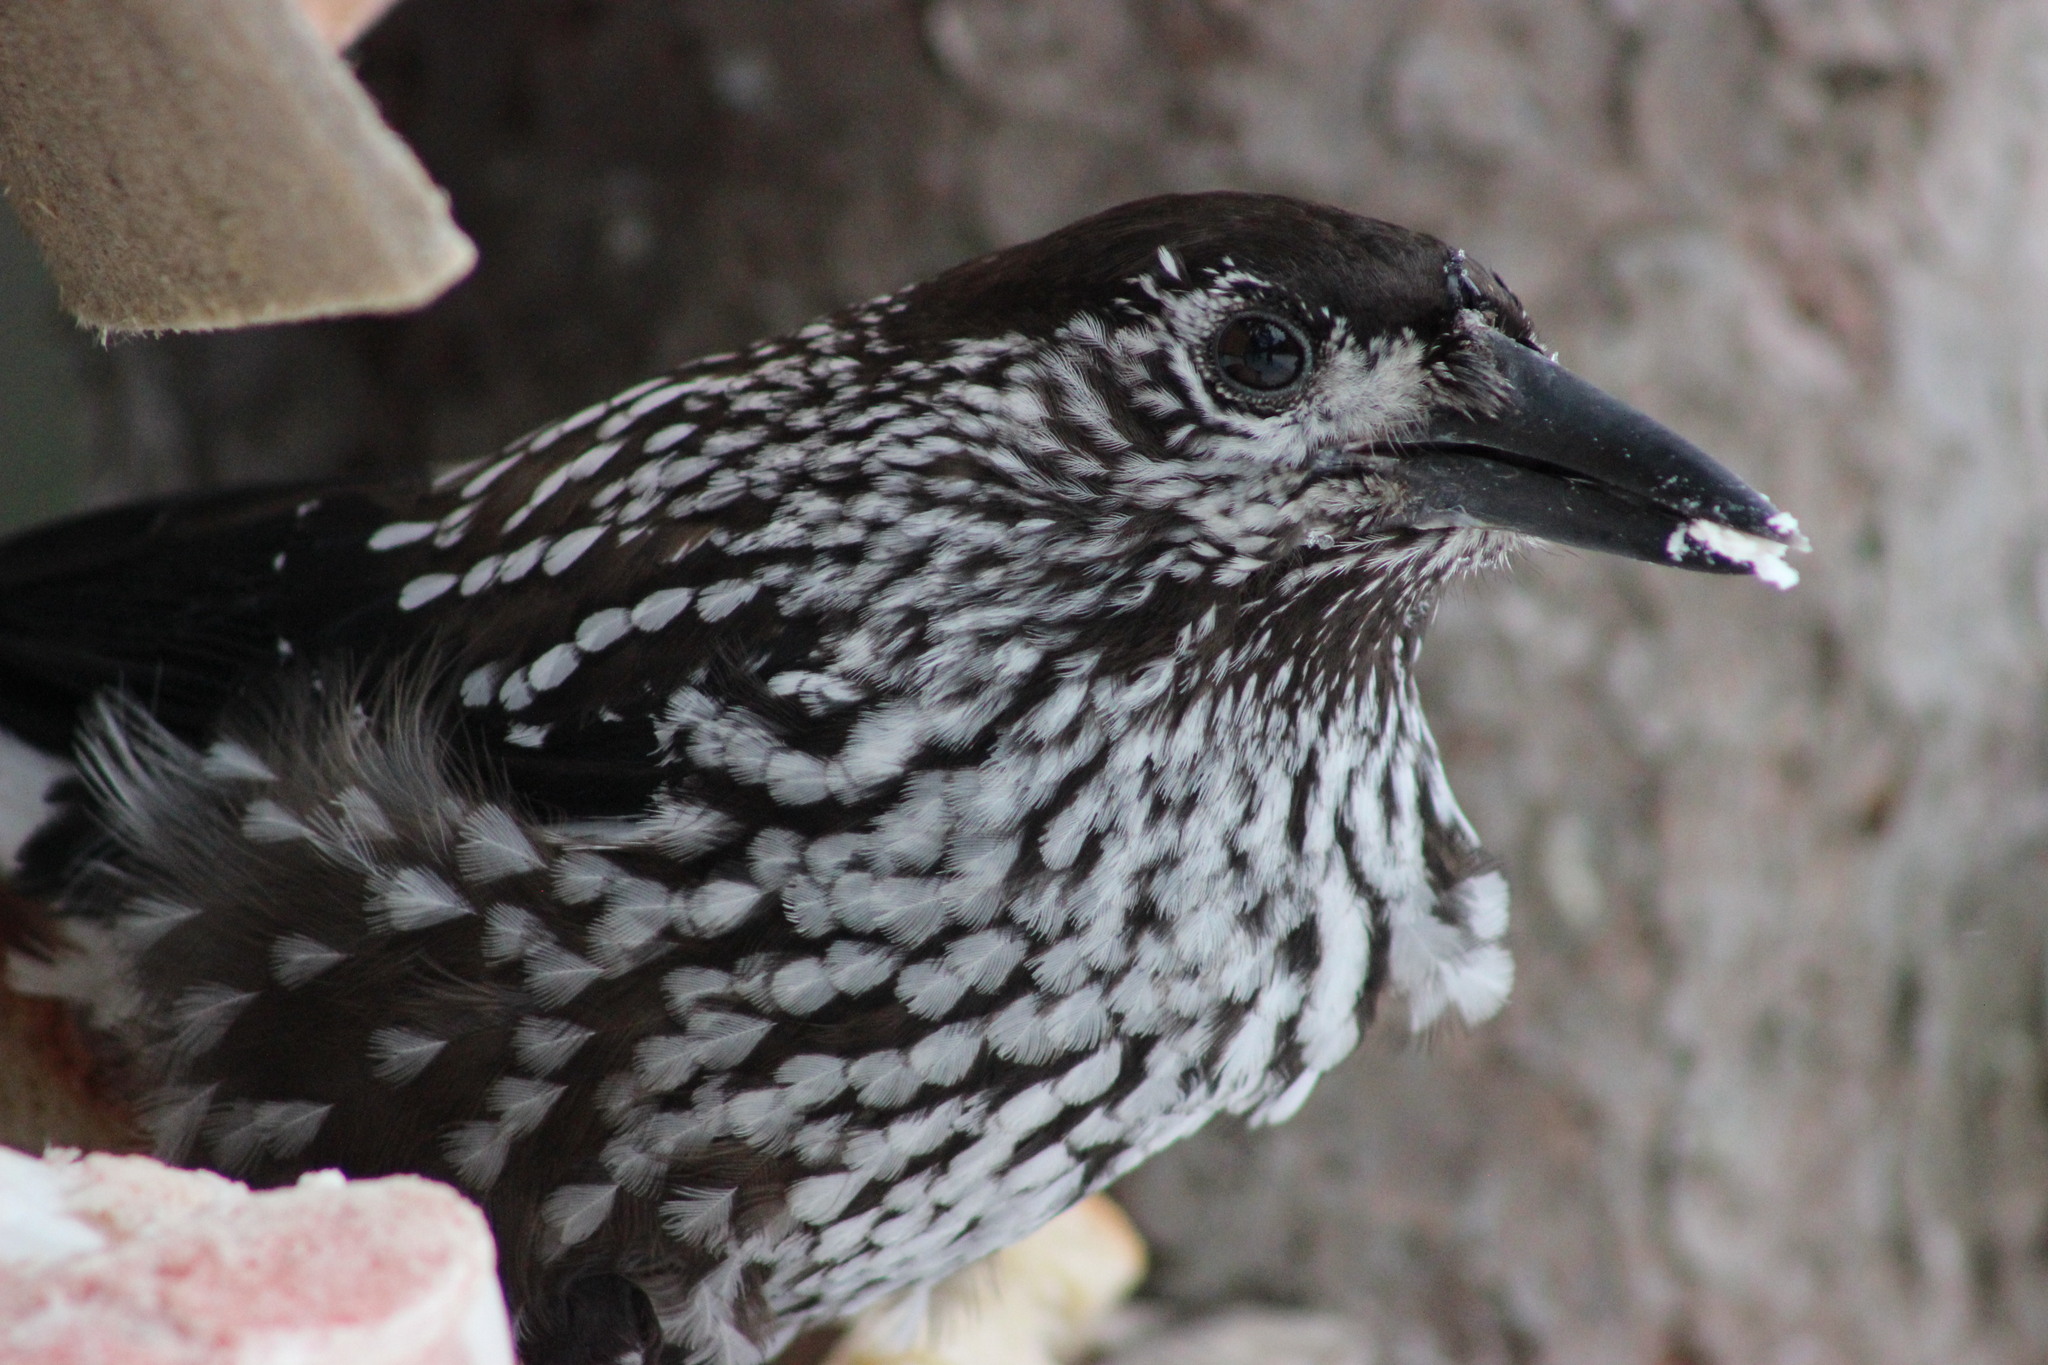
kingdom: Animalia
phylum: Chordata
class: Aves
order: Passeriformes
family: Corvidae
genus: Nucifraga
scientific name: Nucifraga caryocatactes
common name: Spotted nutcracker
